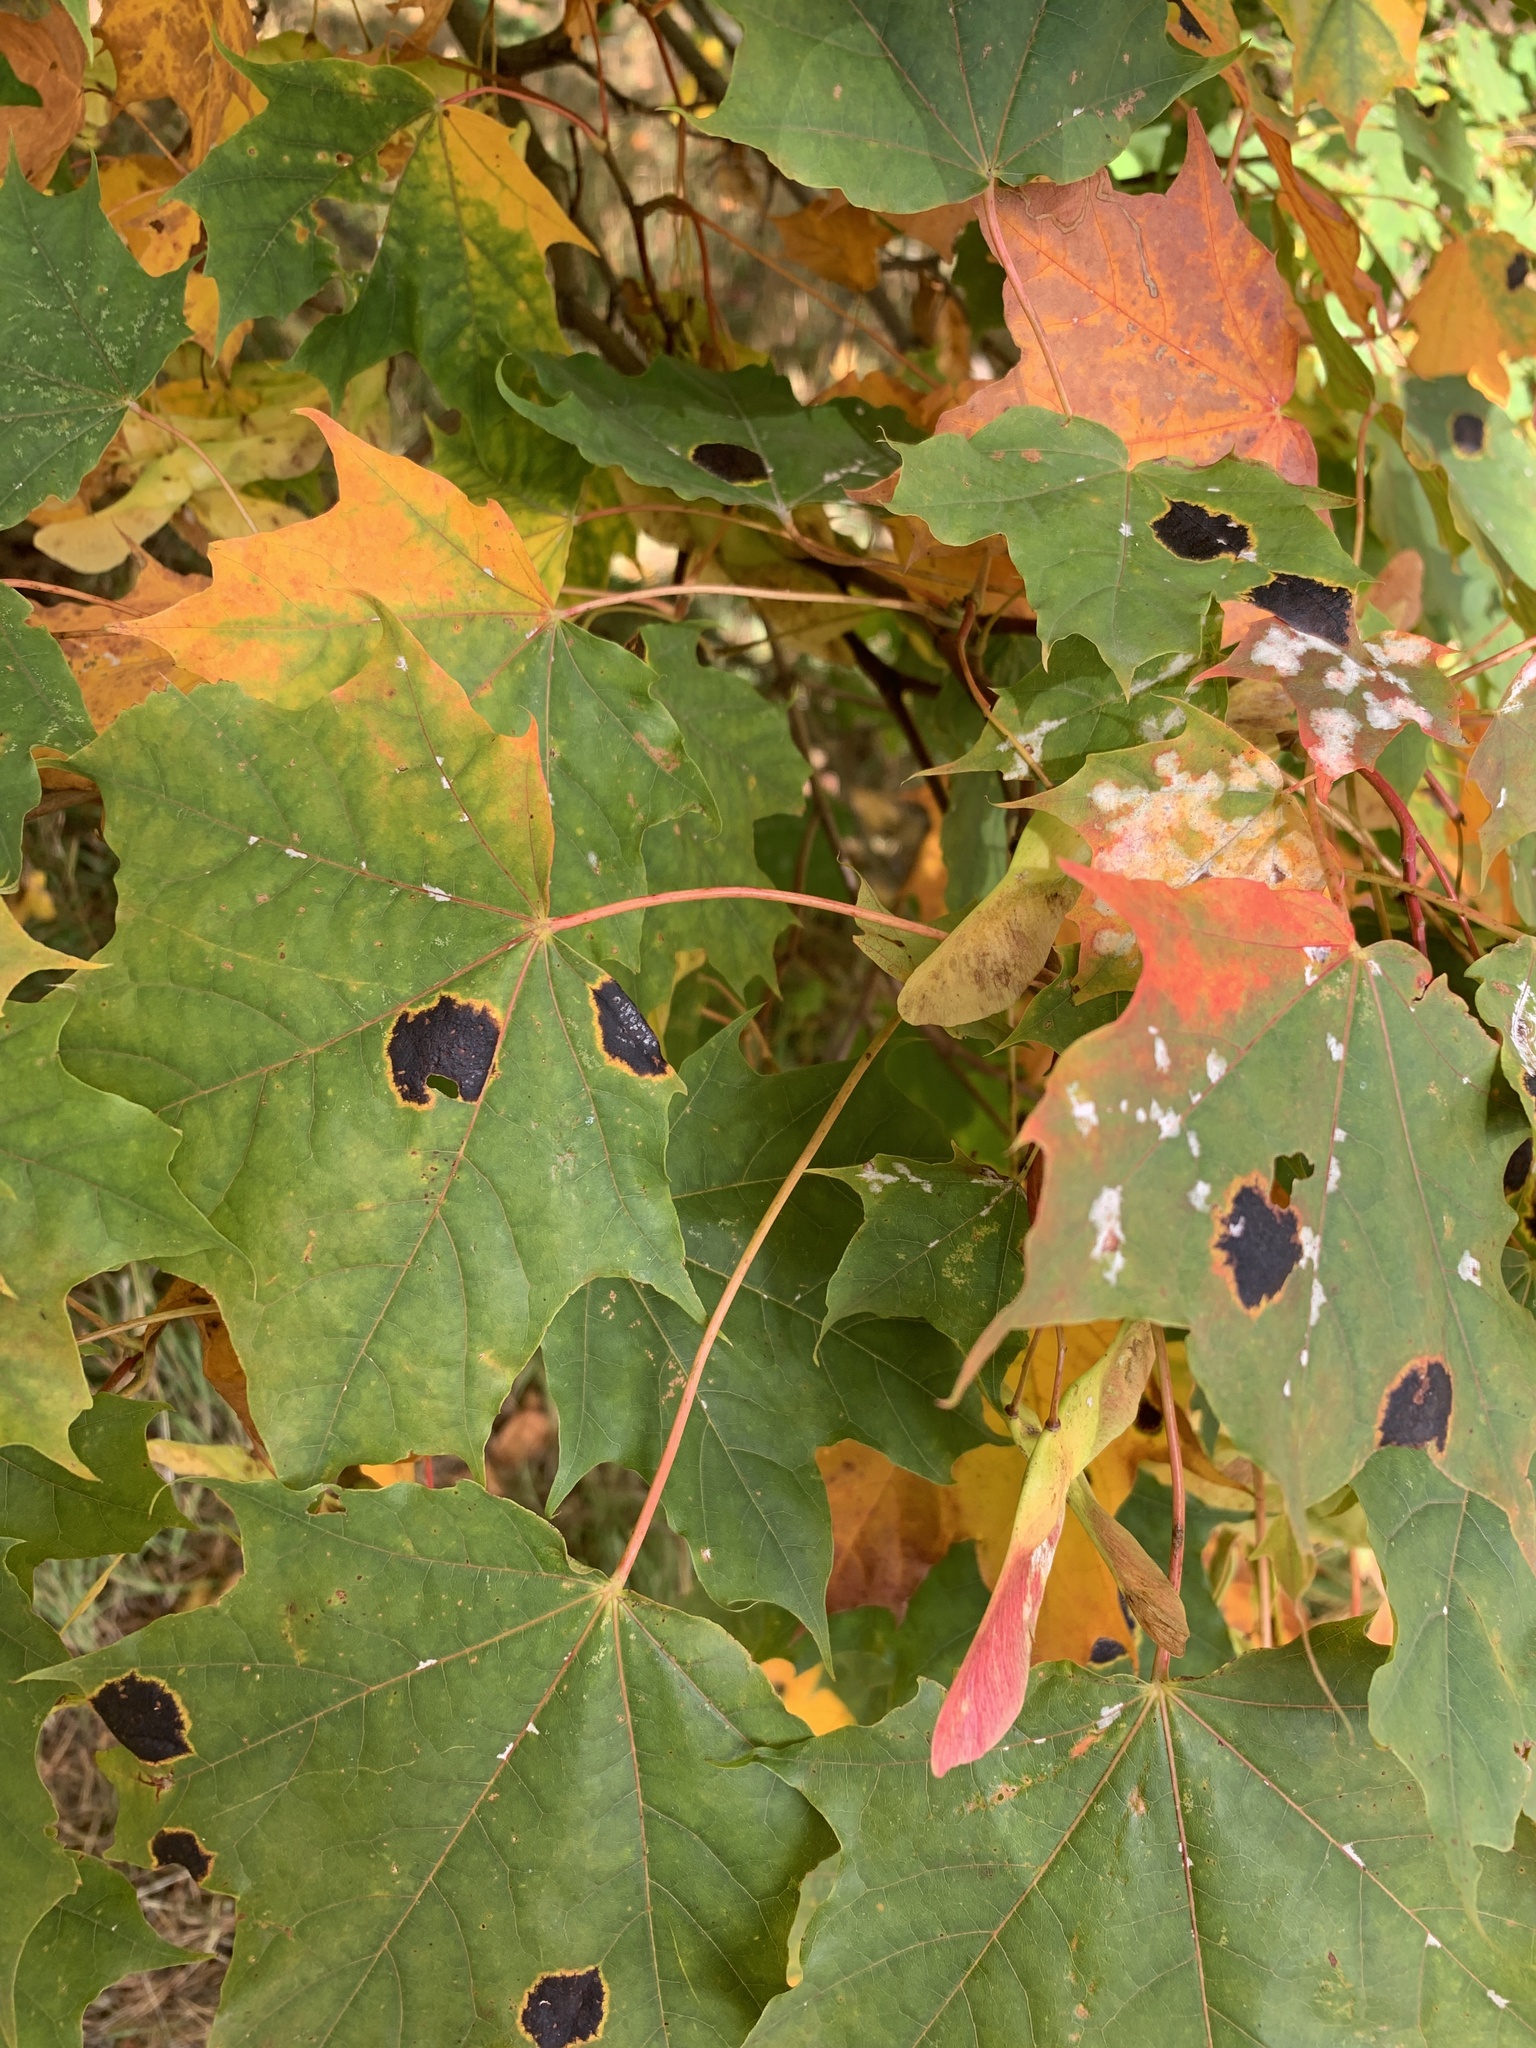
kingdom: Plantae
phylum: Tracheophyta
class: Magnoliopsida
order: Sapindales
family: Sapindaceae
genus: Acer
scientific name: Acer platanoides
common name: Norway maple
